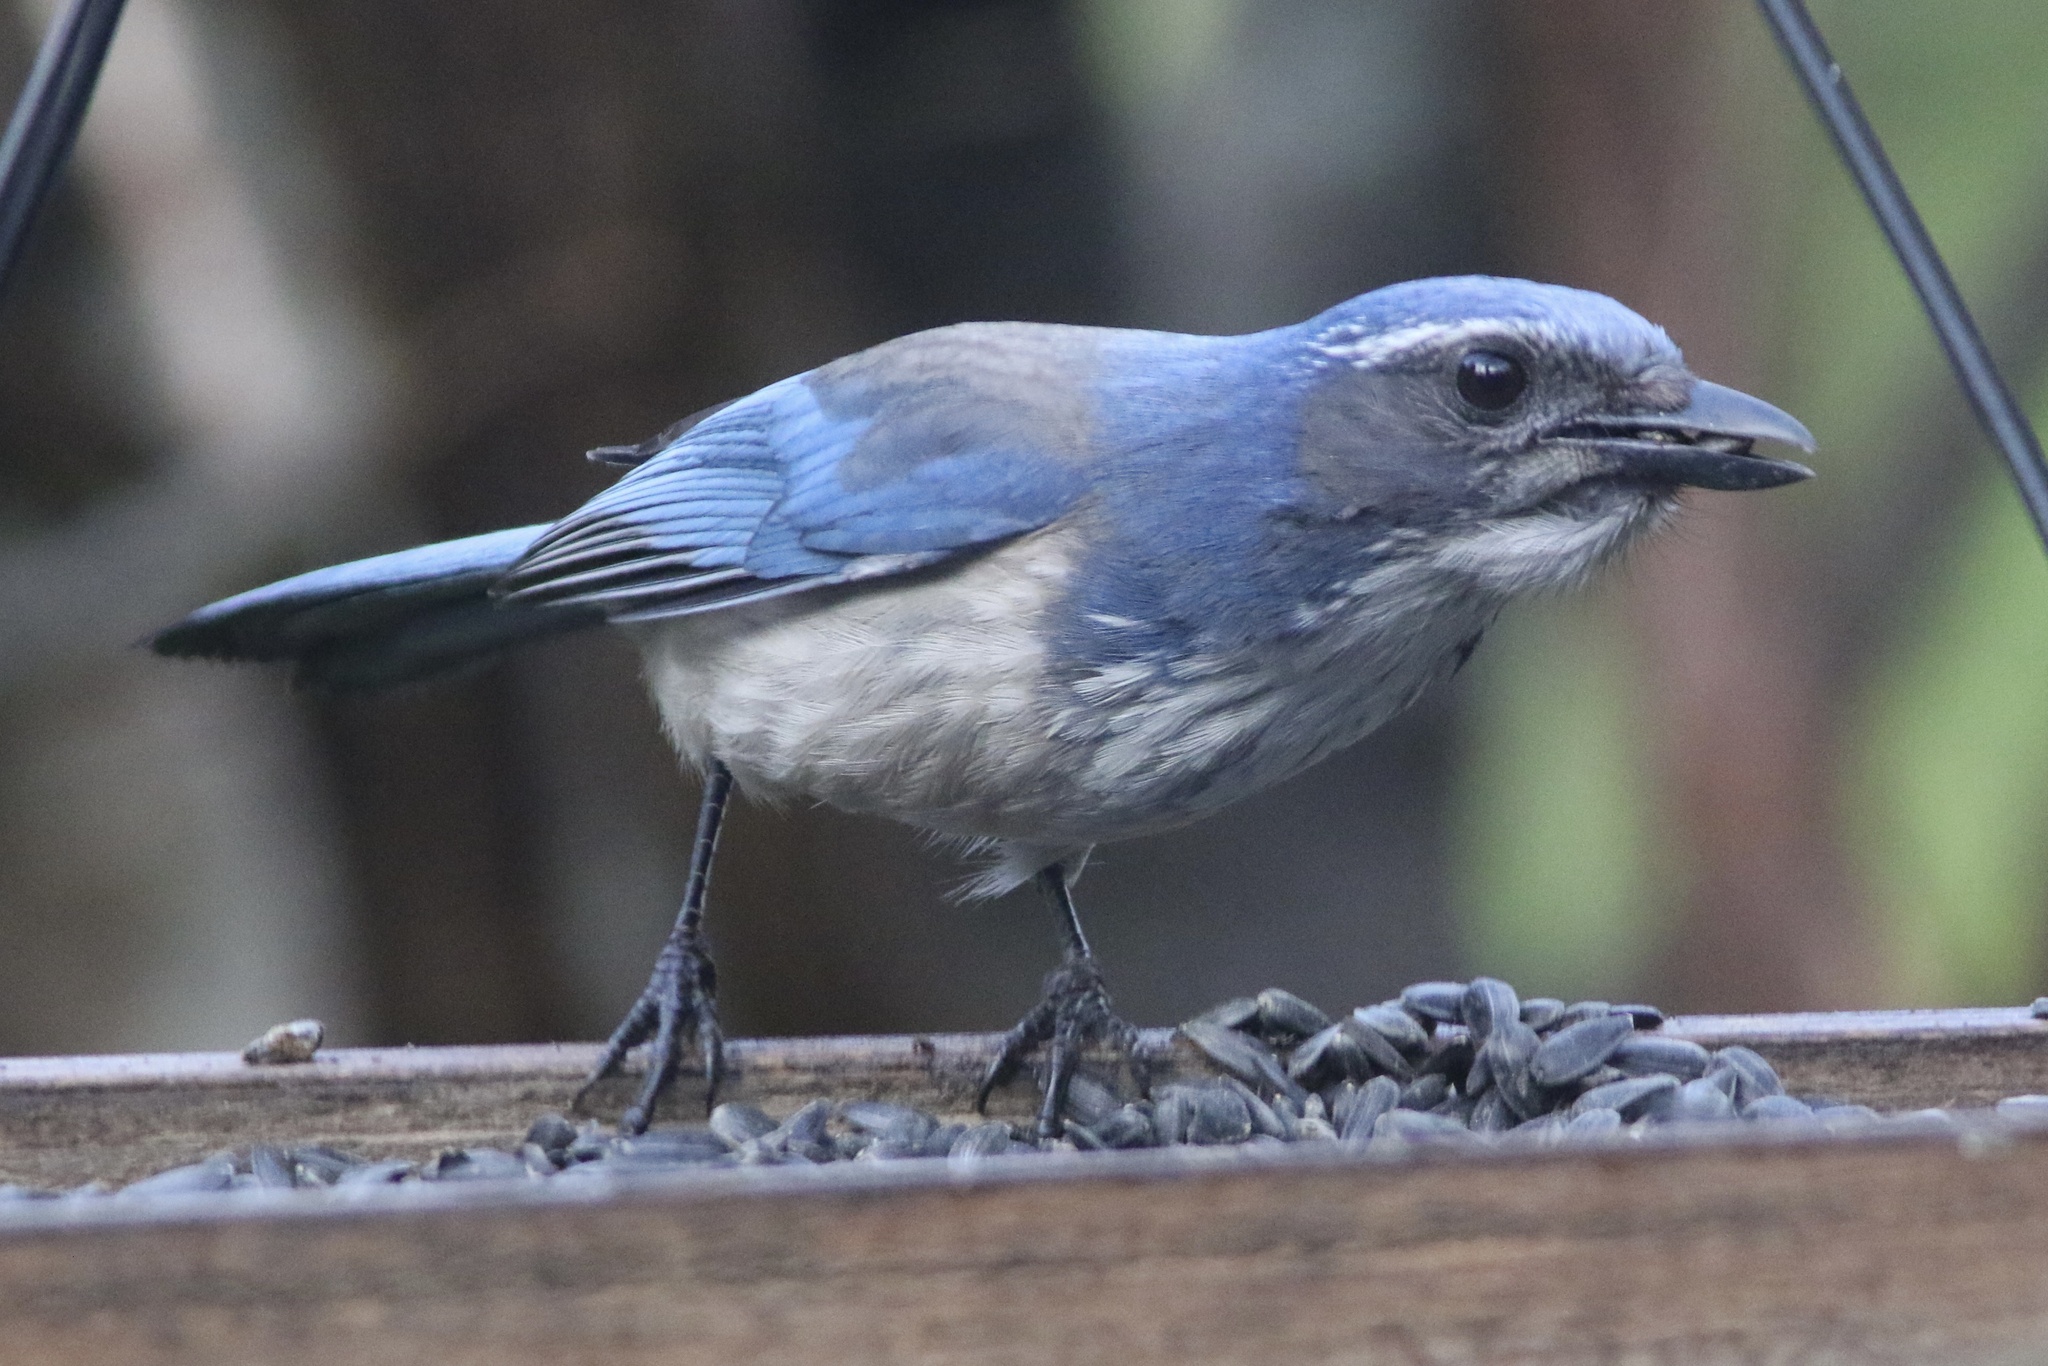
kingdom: Animalia
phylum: Chordata
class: Aves
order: Passeriformes
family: Corvidae
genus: Aphelocoma
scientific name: Aphelocoma californica
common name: California scrub-jay
